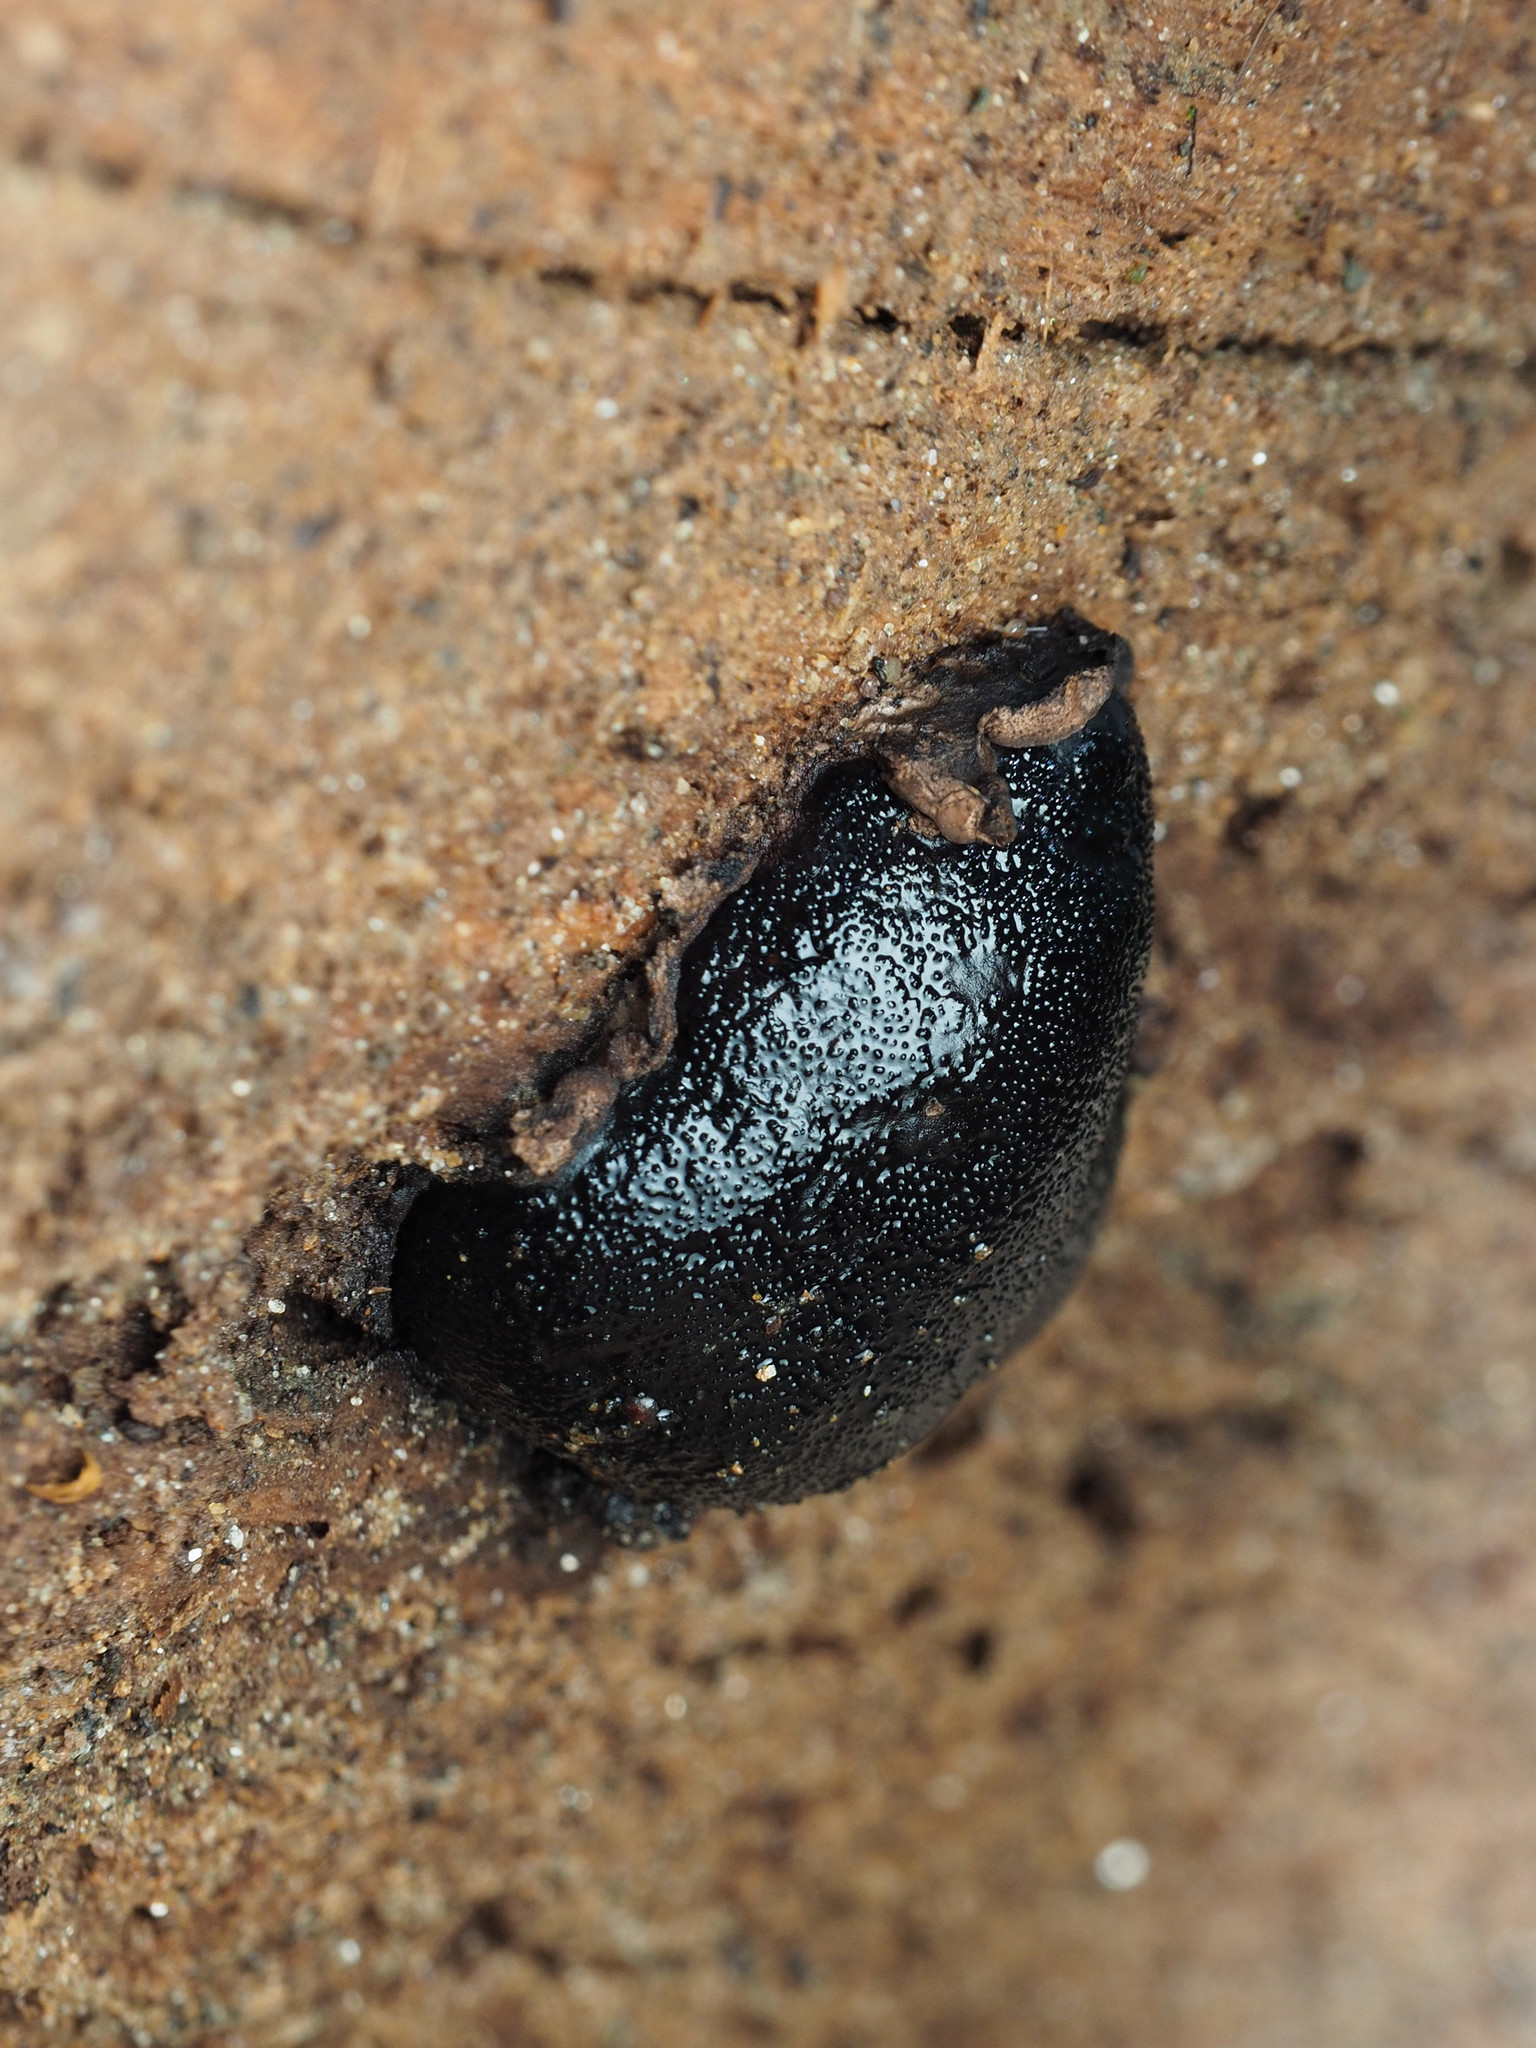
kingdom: Fungi
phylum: Ascomycota
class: Sordariomycetes
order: Boliniales
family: Boliniaceae
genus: Camarops
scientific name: Camarops petersii
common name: Dog's nose fungus
